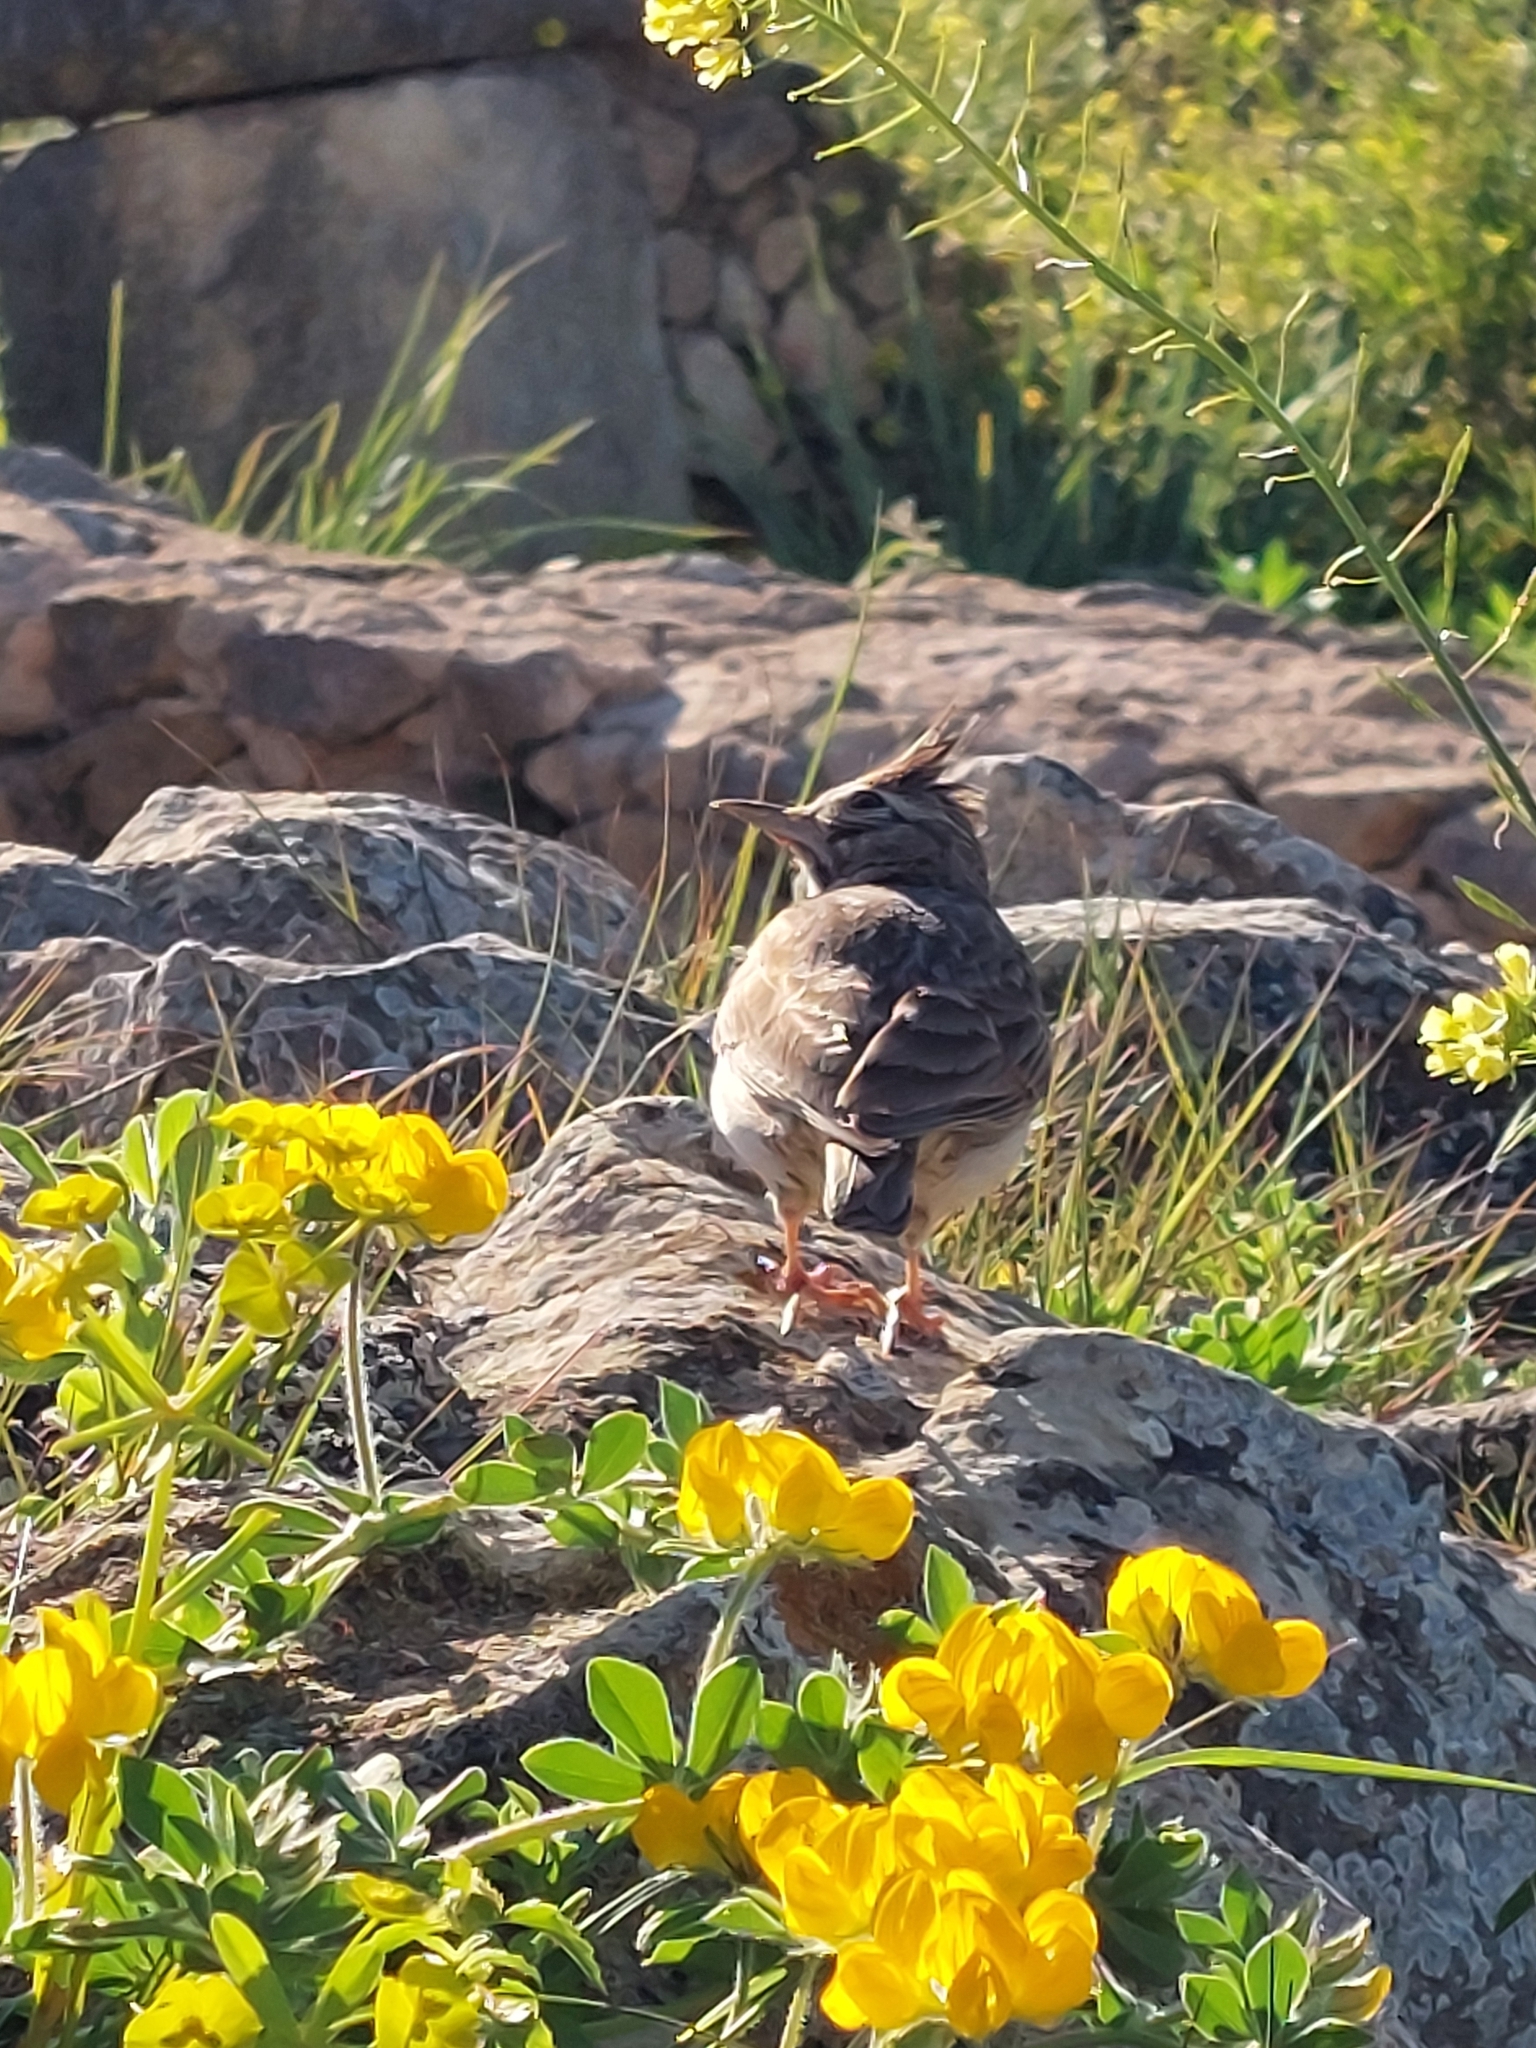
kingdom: Animalia
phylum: Chordata
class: Aves
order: Passeriformes
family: Alaudidae
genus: Galerida
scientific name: Galerida cristata
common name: Crested lark
